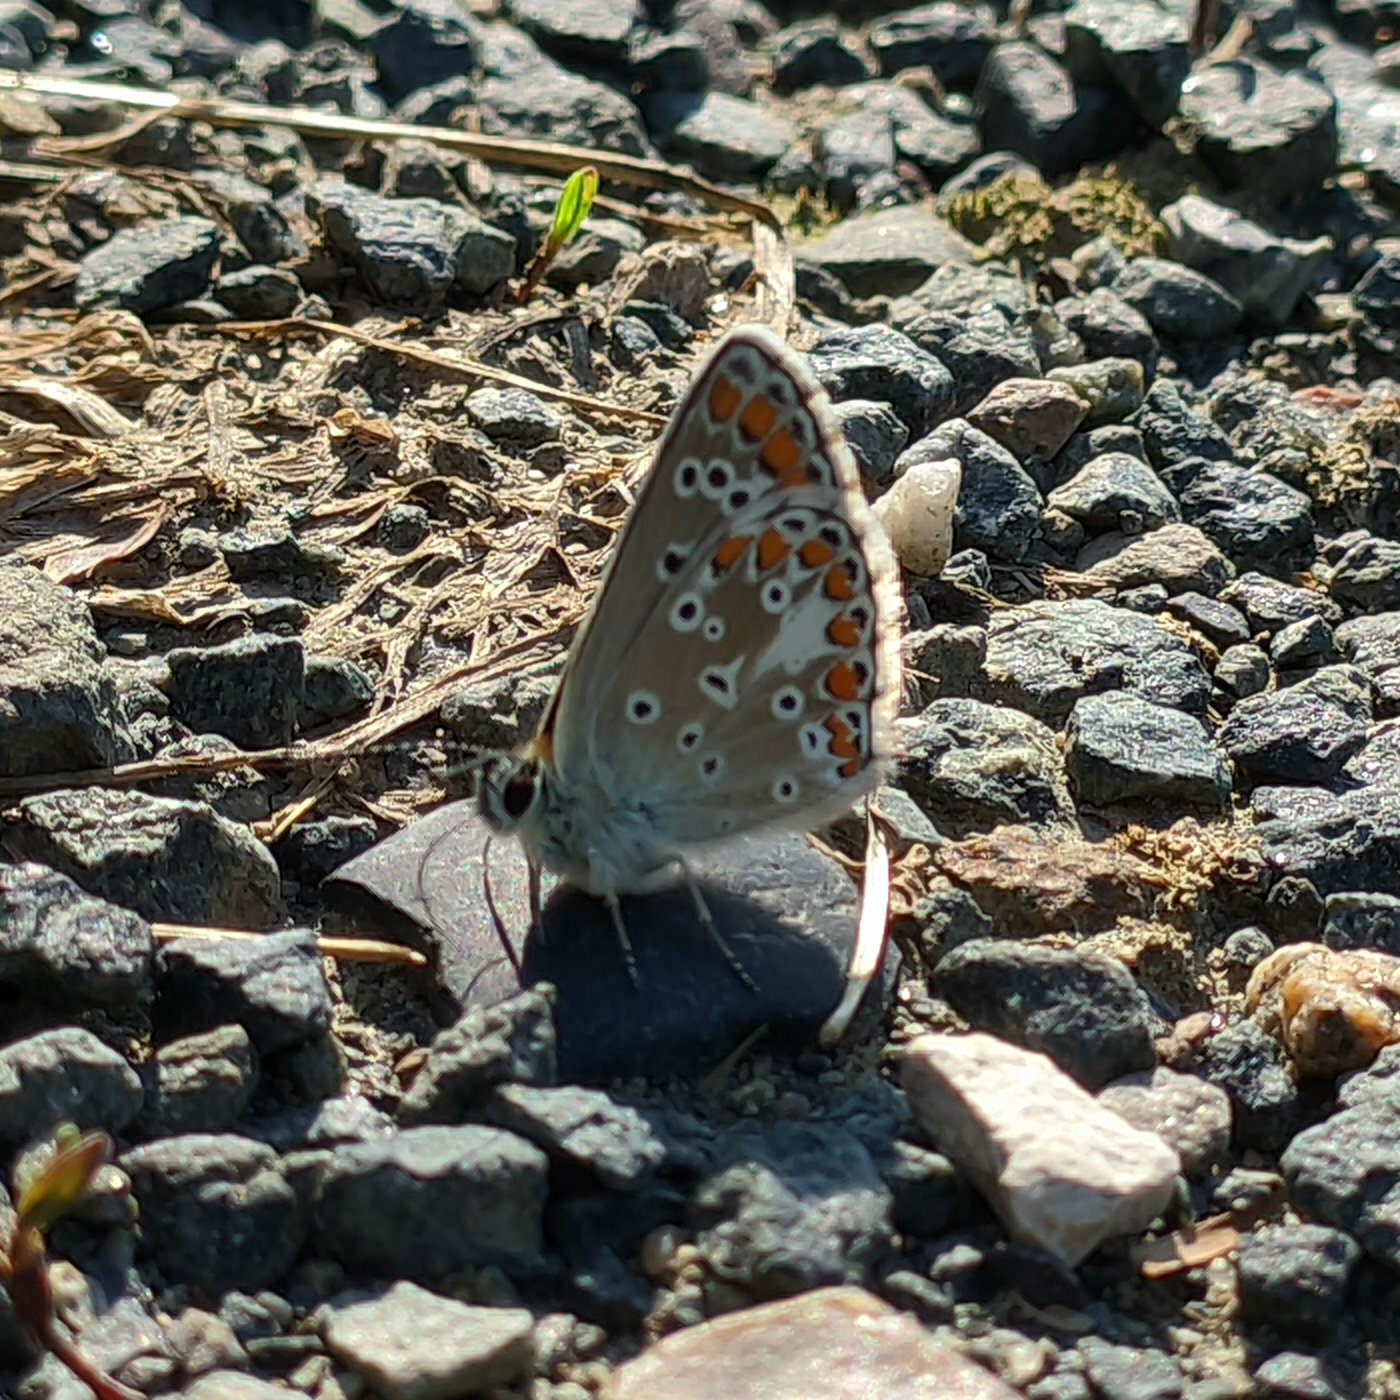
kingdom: Animalia
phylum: Arthropoda
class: Insecta
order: Lepidoptera
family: Lycaenidae
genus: Aricia
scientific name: Aricia agestis
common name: Brown argus
